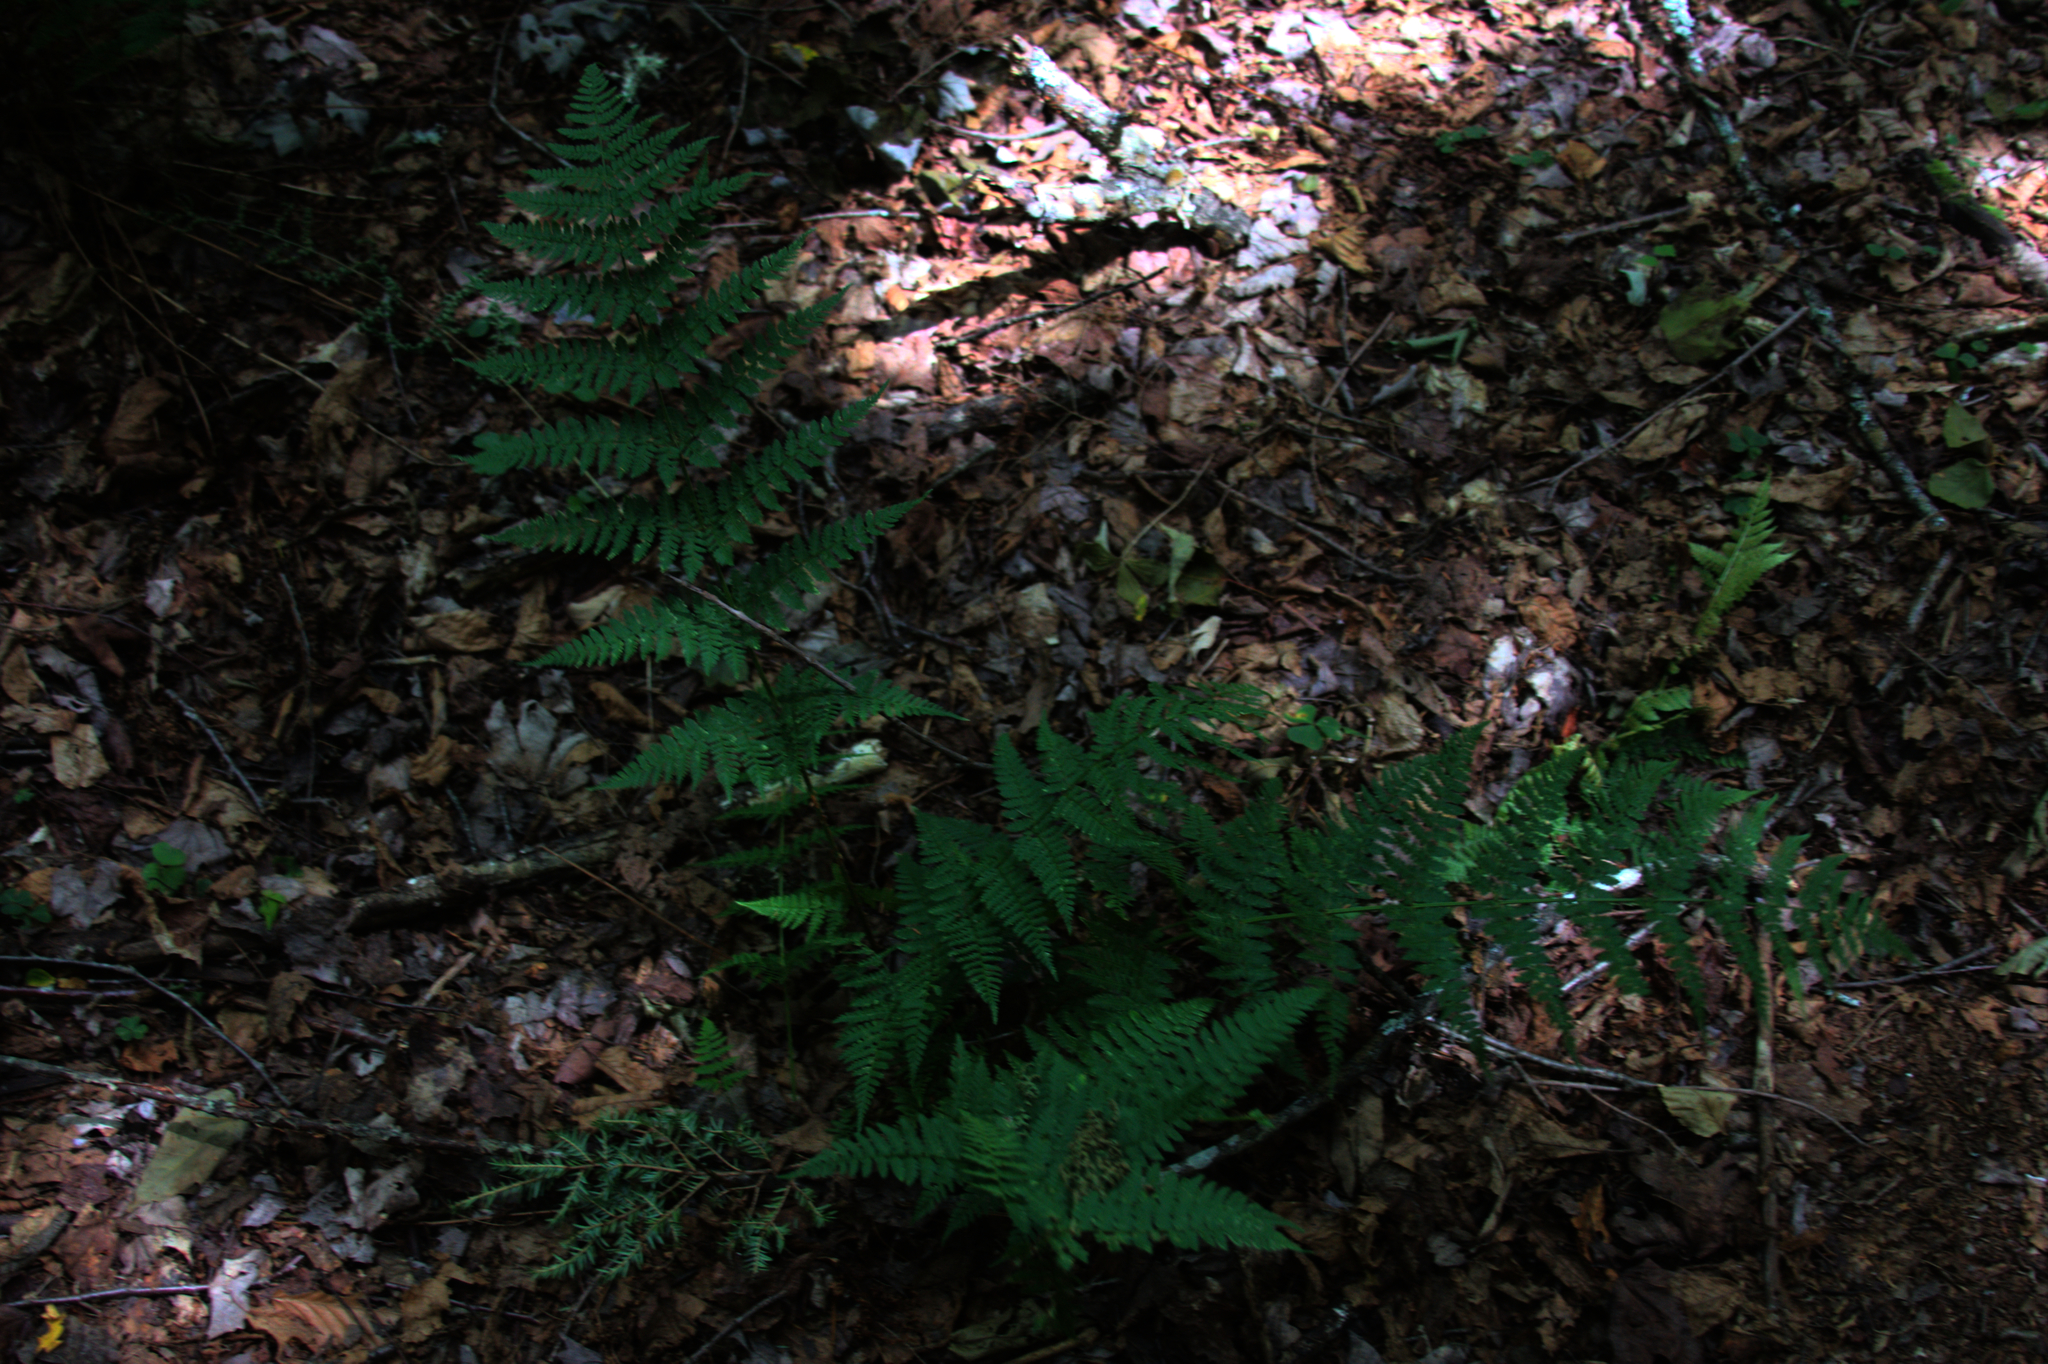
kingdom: Plantae
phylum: Tracheophyta
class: Polypodiopsida
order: Polypodiales
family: Dryopteridaceae
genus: Dryopteris
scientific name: Dryopteris intermedia
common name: Evergreen wood fern
